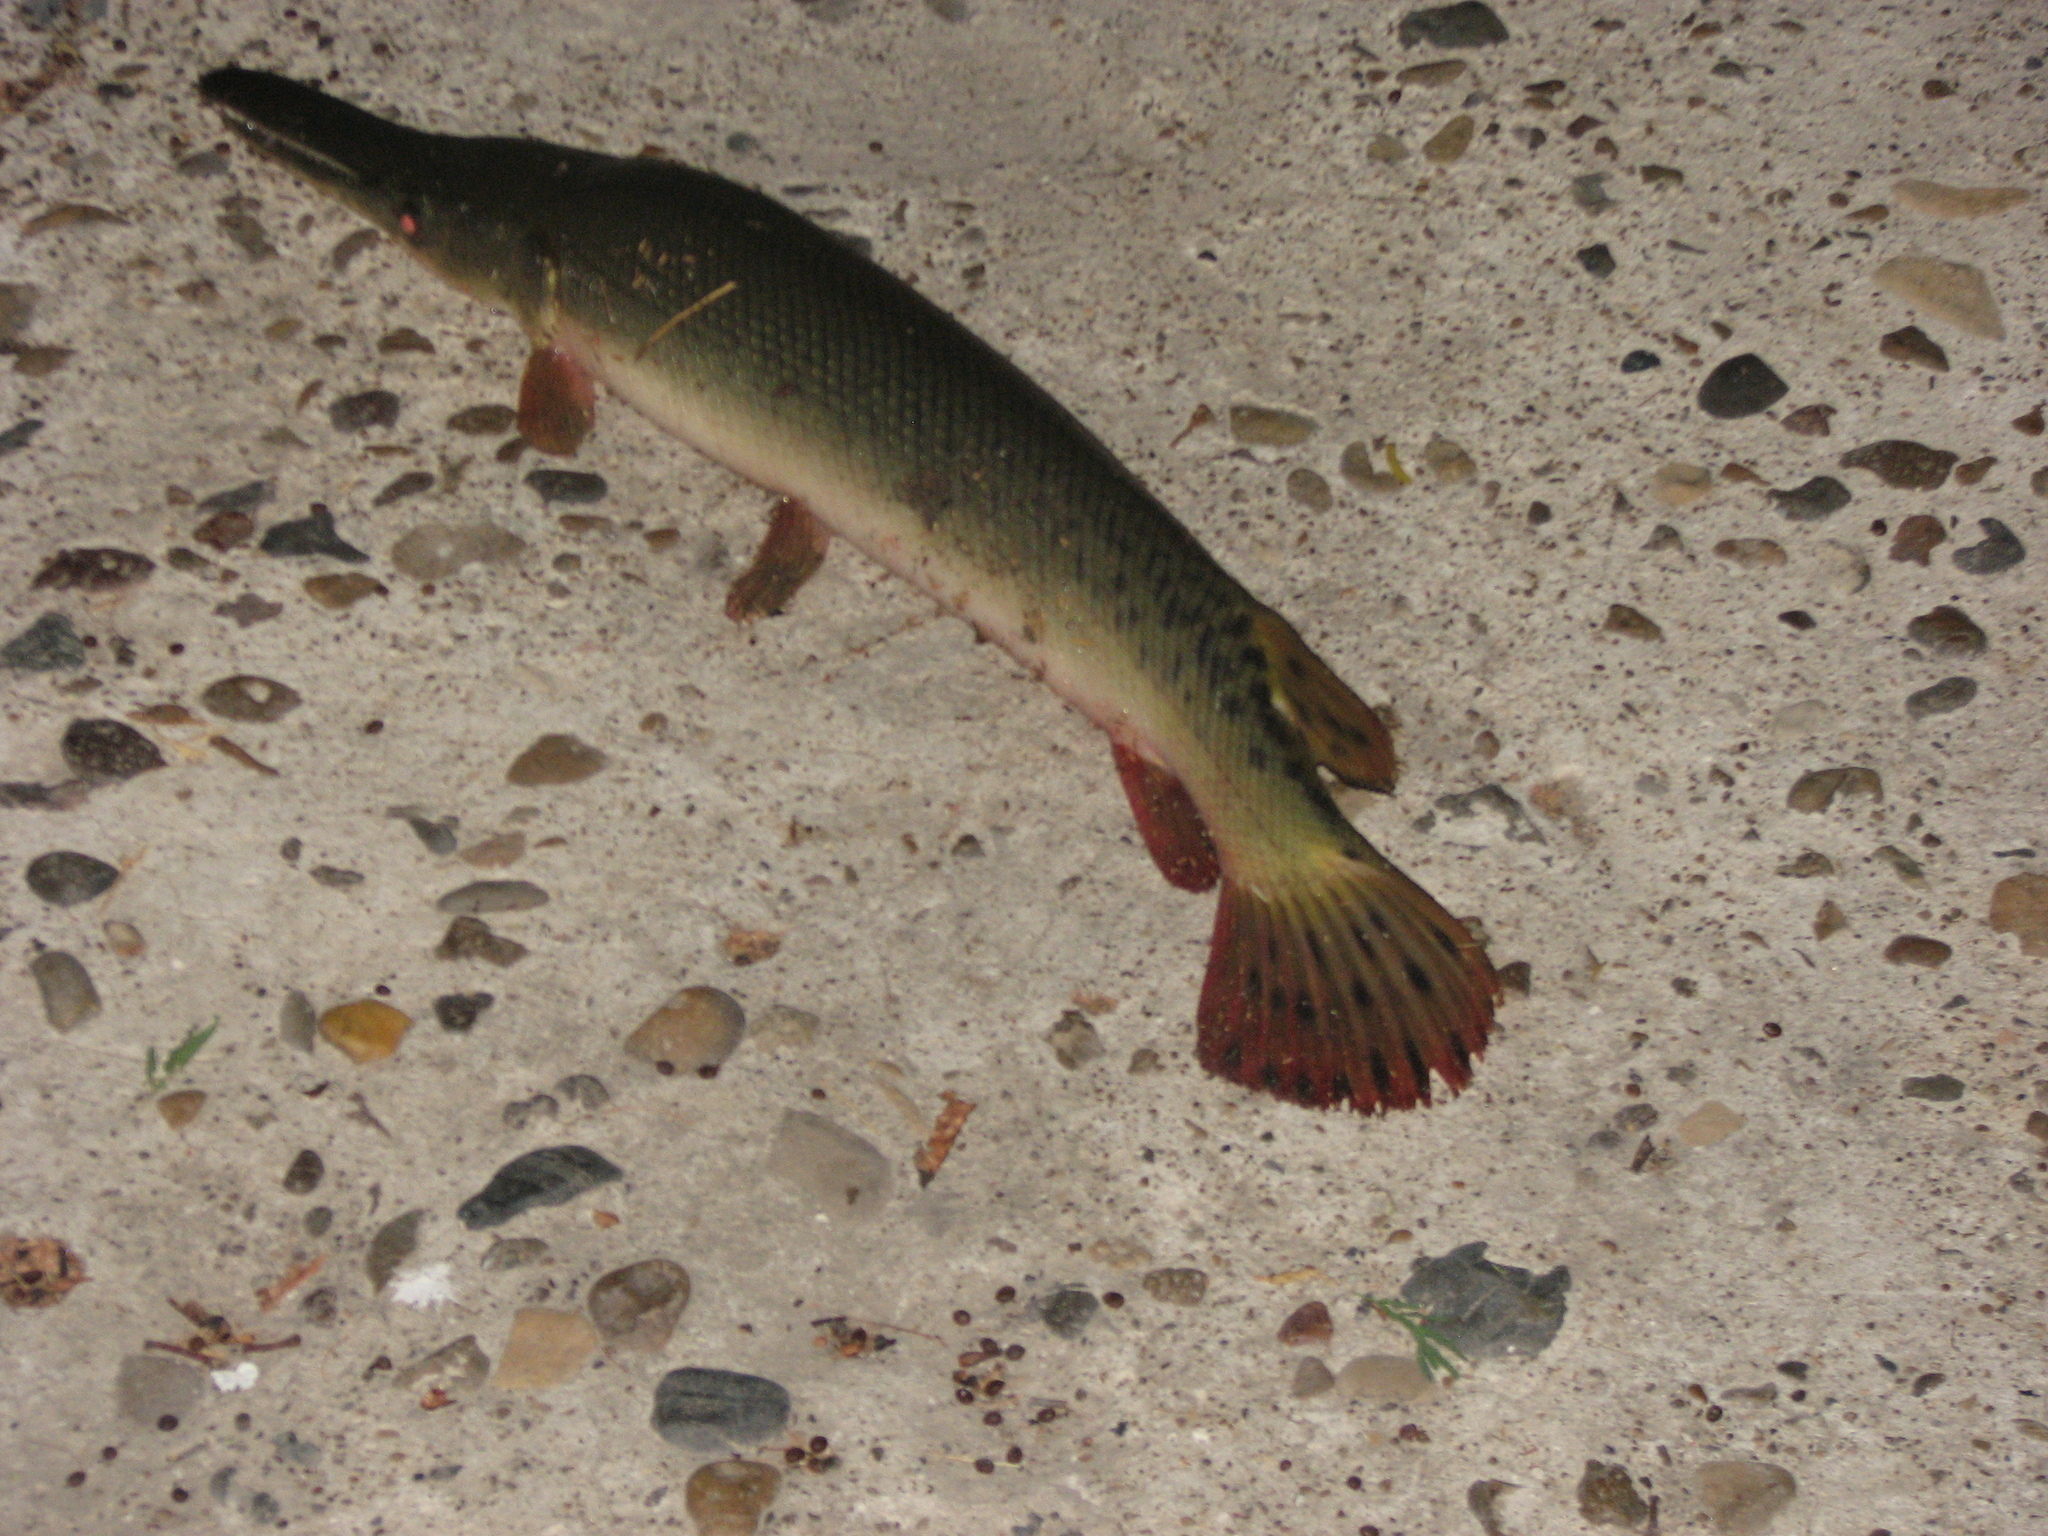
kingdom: Animalia
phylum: Chordata
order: Lepisosteiformes
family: Lepisosteidae
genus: Atractosteus
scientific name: Atractosteus spatula
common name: Alligator gar
